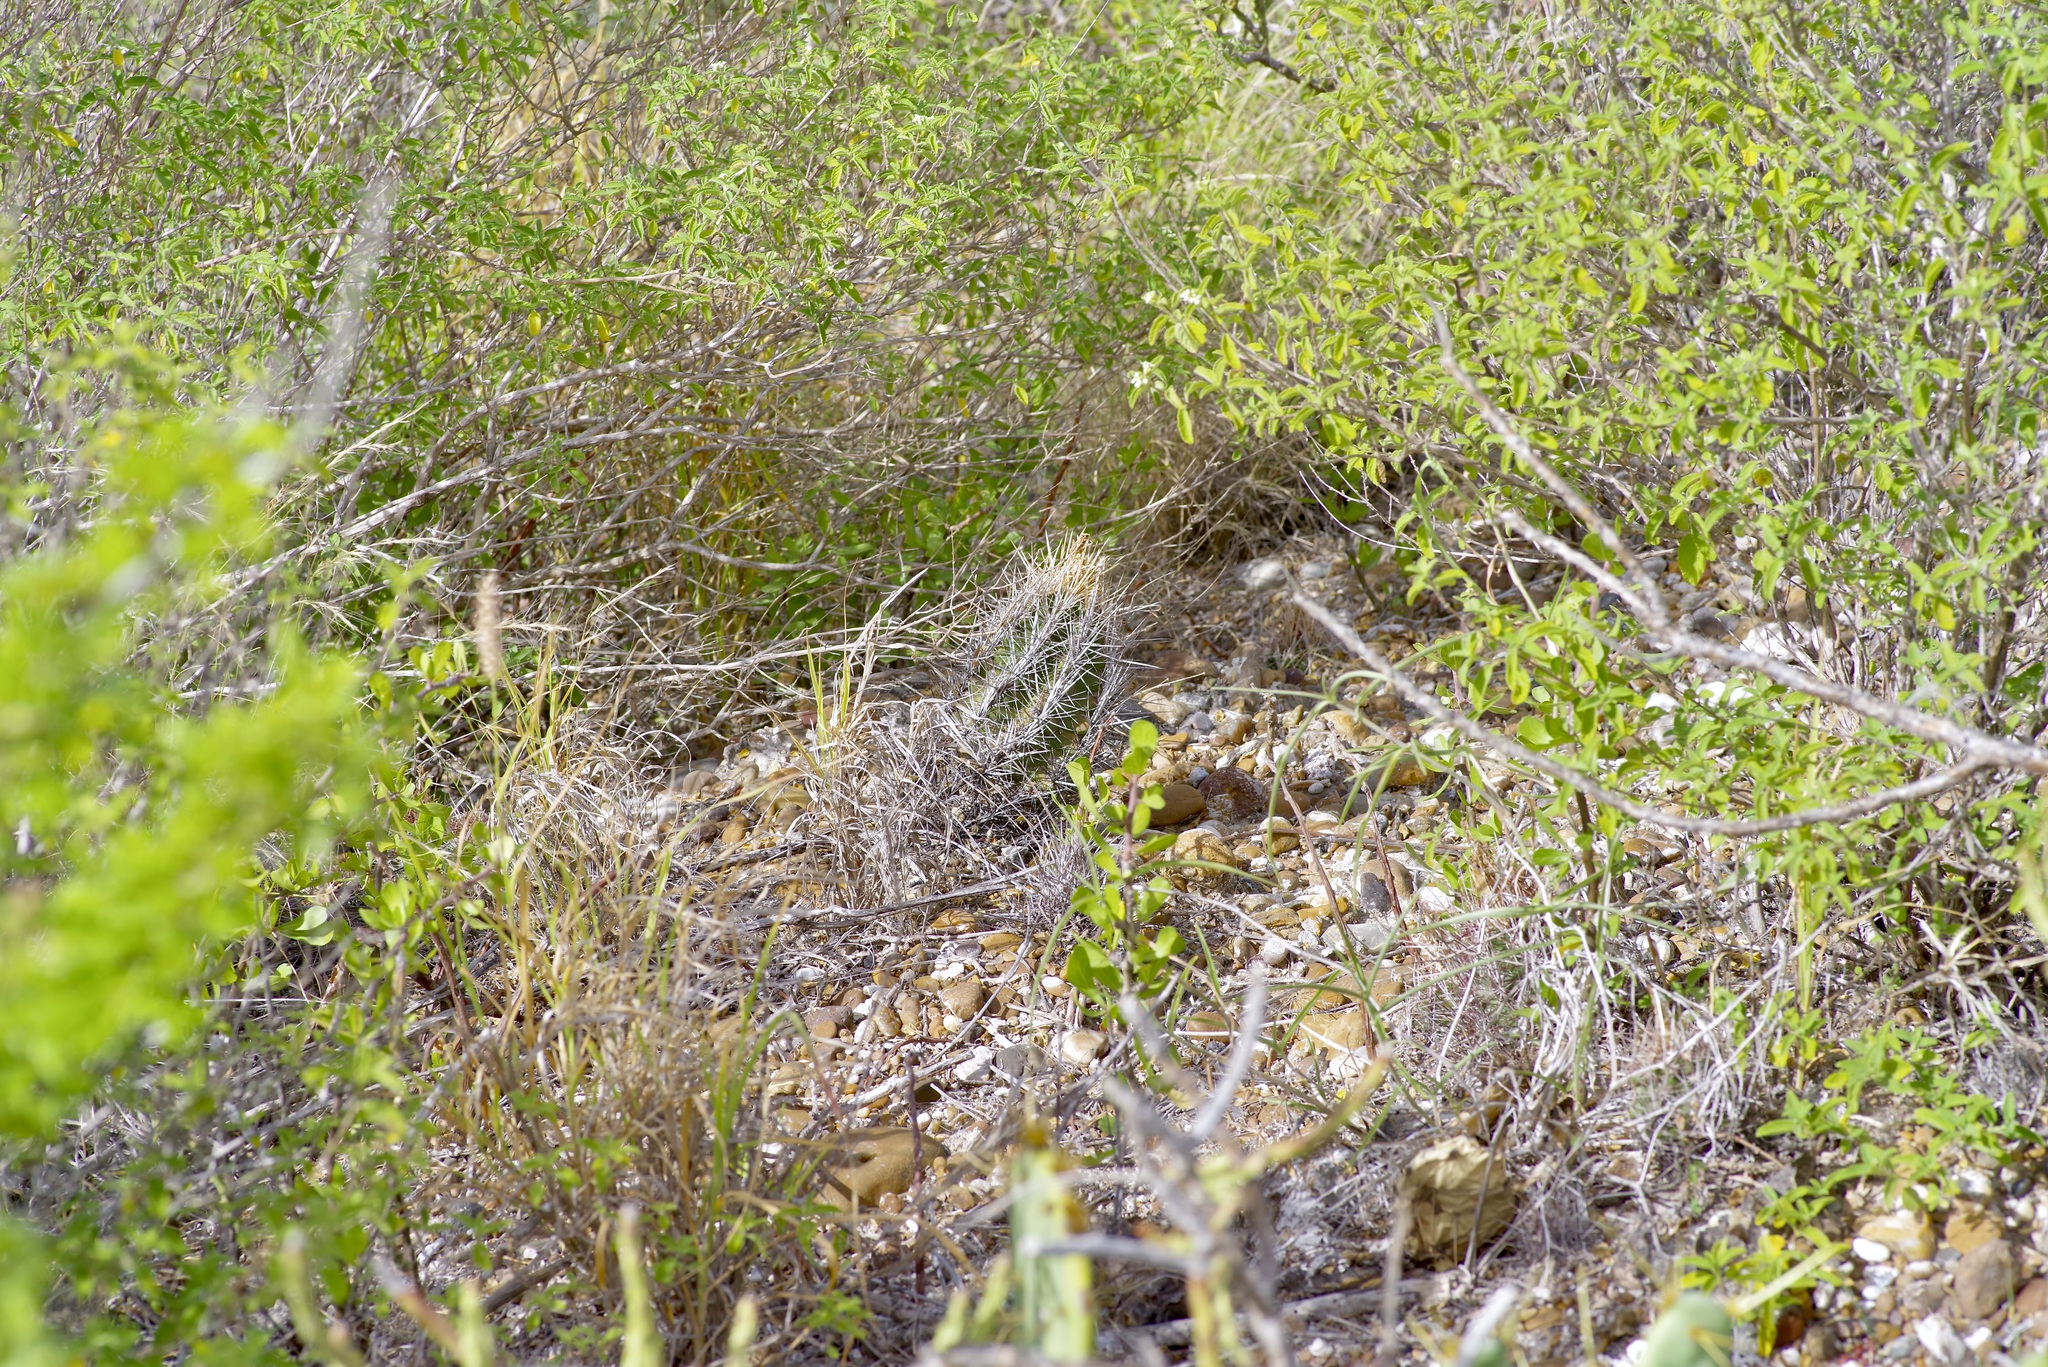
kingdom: Plantae
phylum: Tracheophyta
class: Magnoliopsida
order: Caryophyllales
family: Cactaceae
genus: Thelocactus
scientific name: Thelocactus bicolor
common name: Glory of texas
